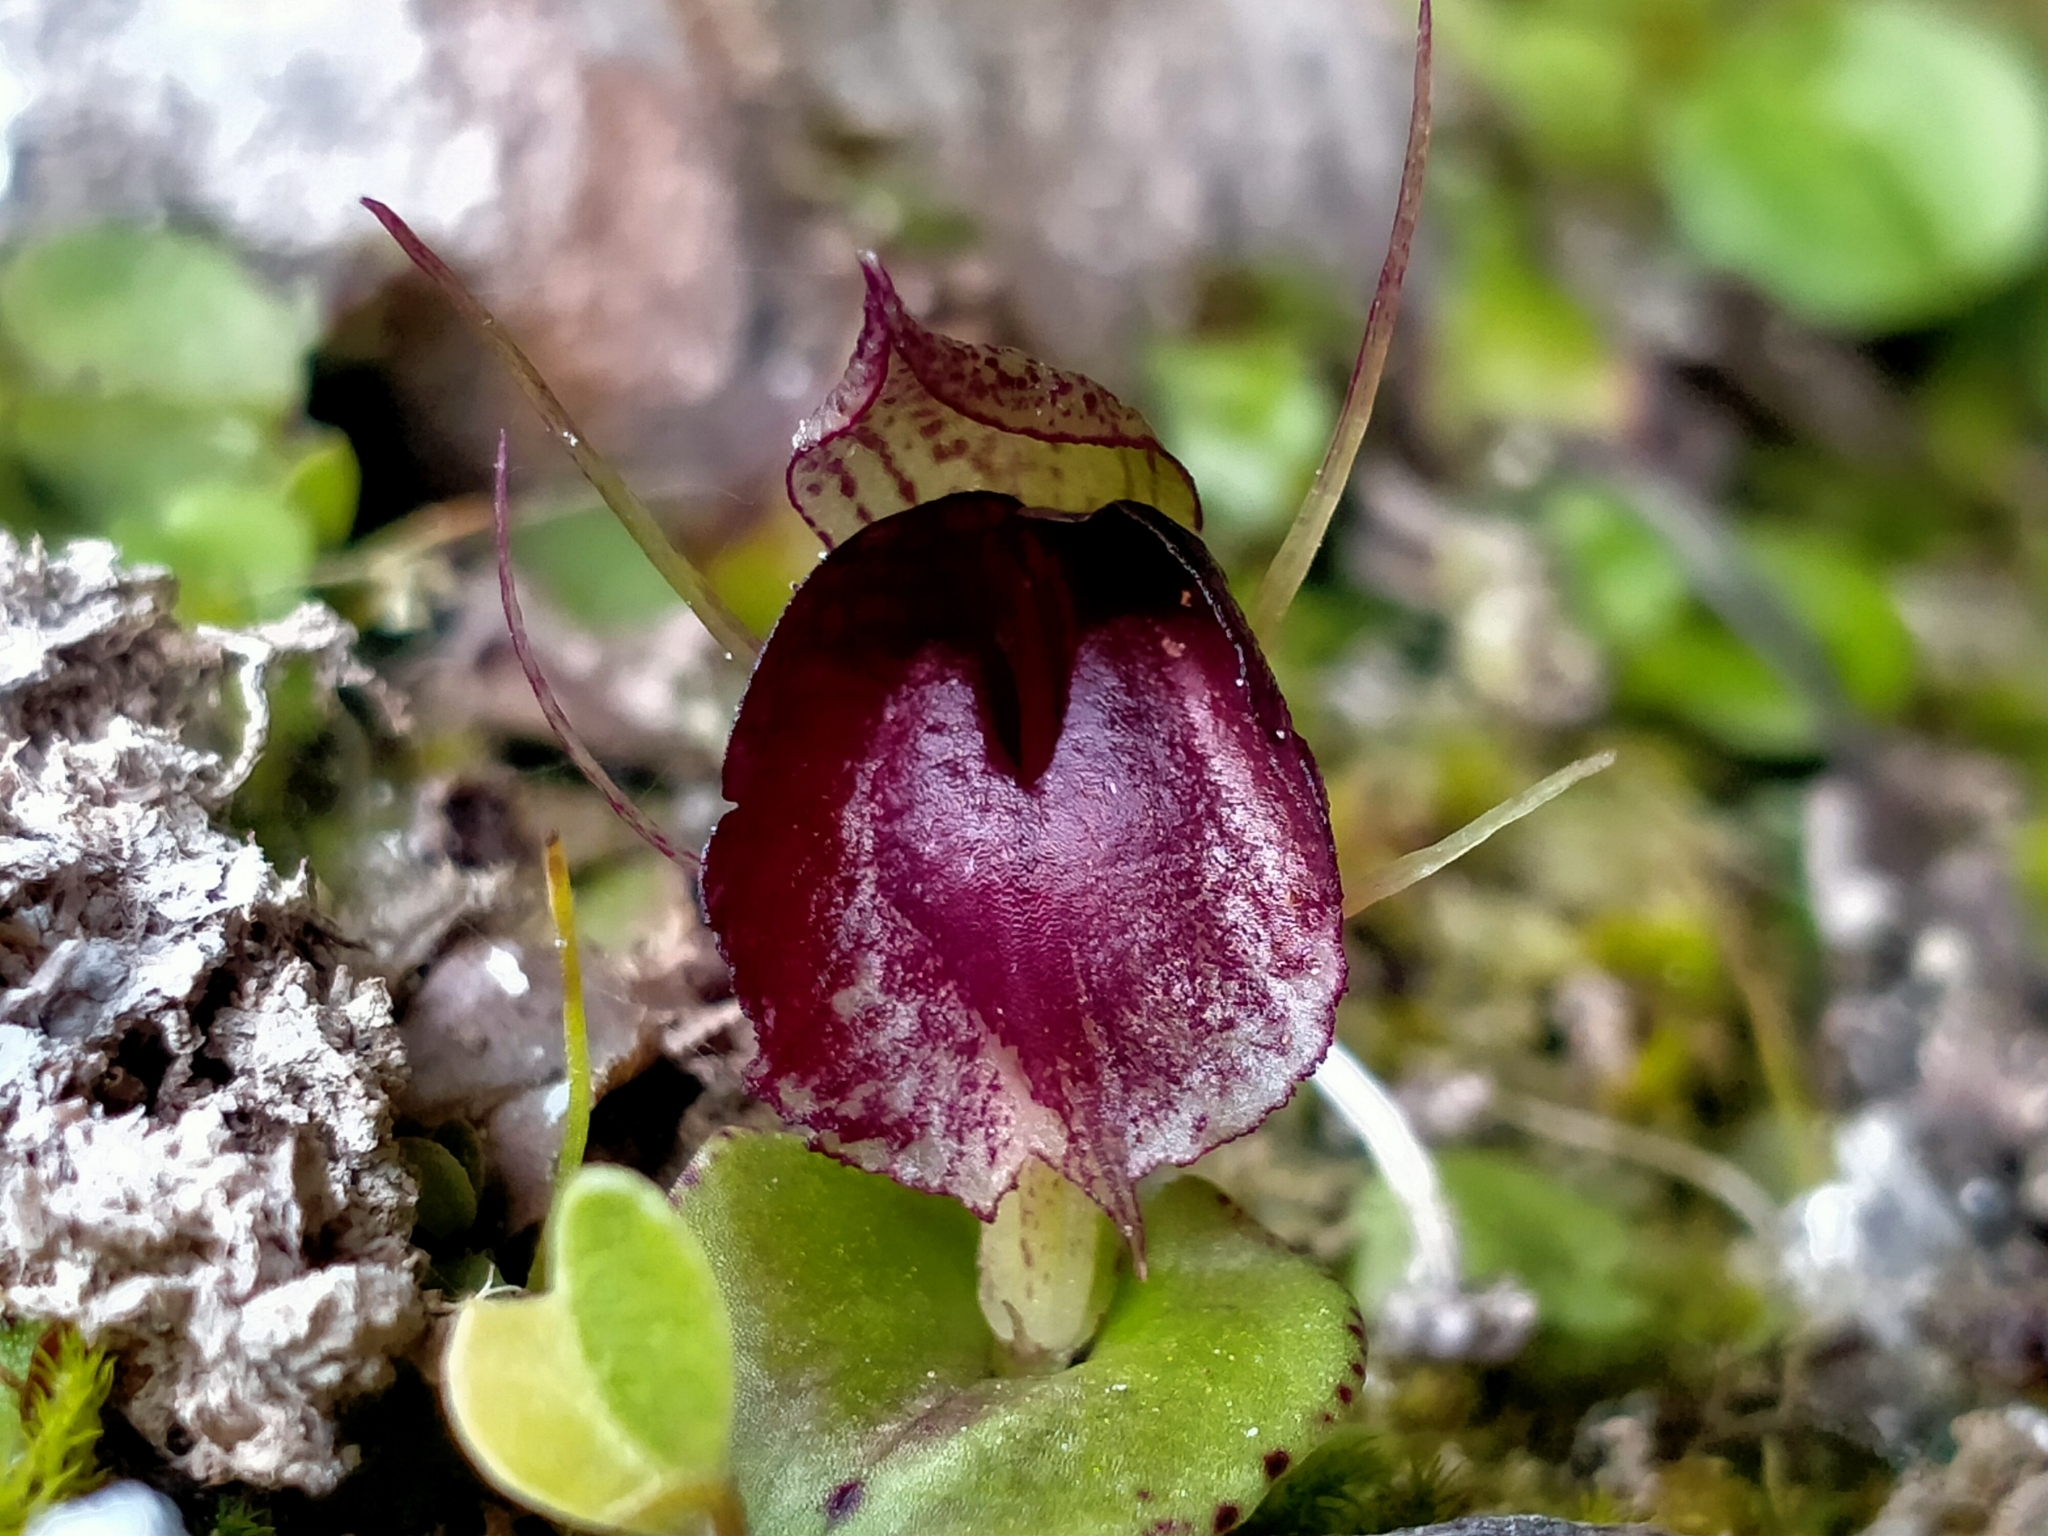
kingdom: Plantae
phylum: Tracheophyta
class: Liliopsida
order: Asparagales
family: Orchidaceae
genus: Corybas
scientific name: Corybas orbiculatus
